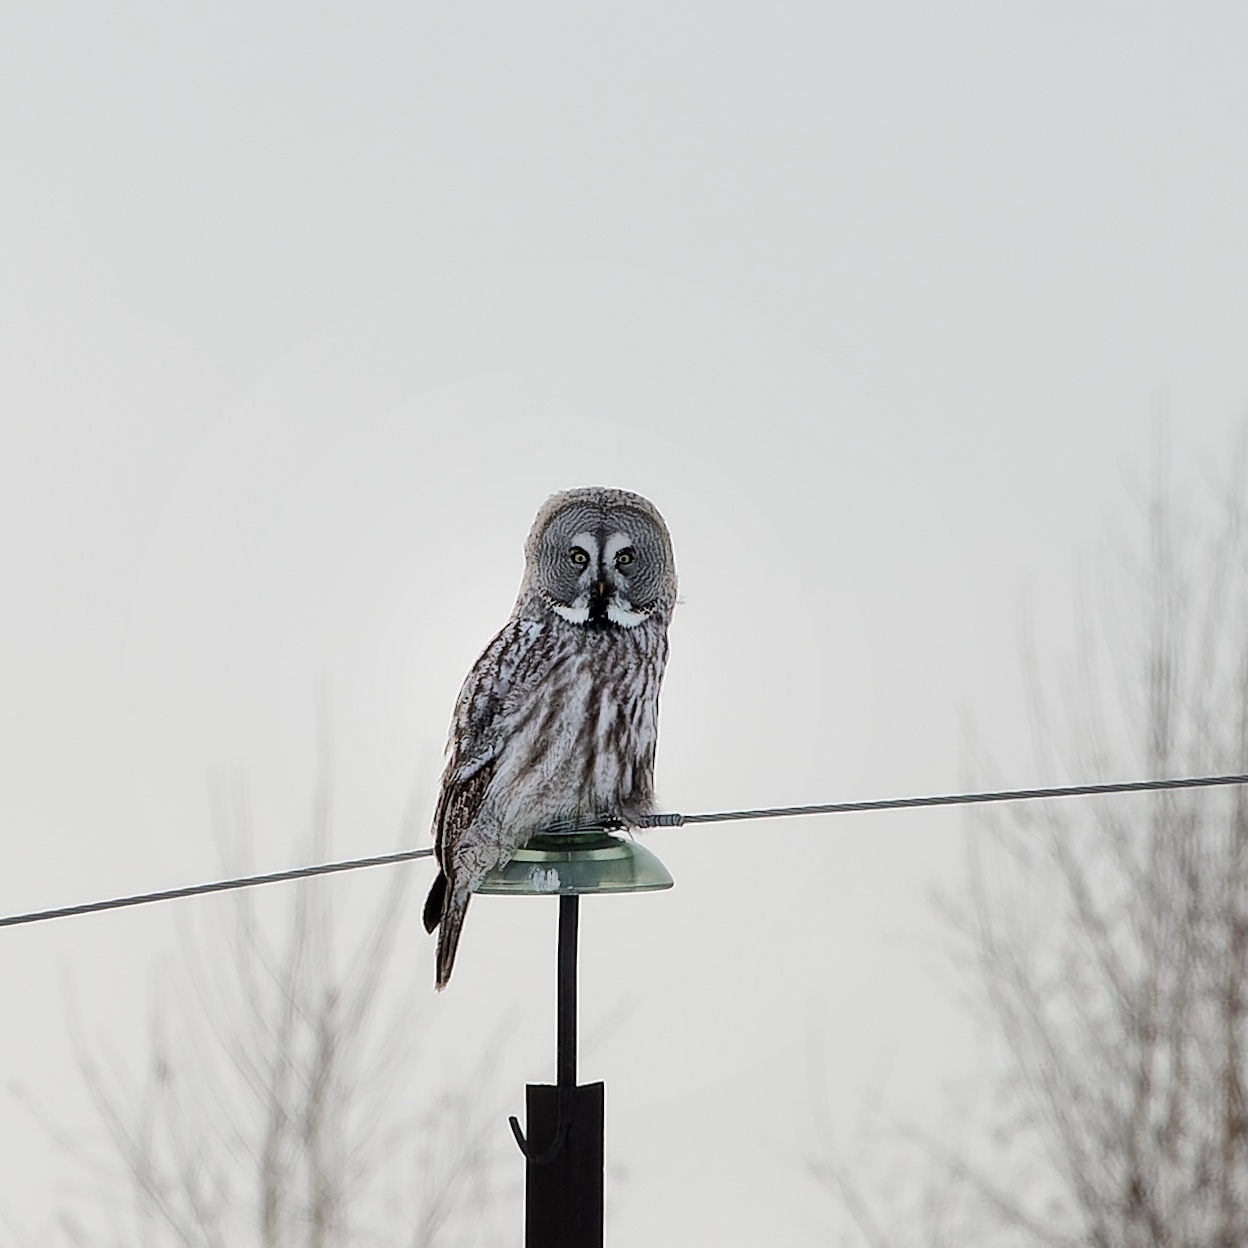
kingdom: Animalia
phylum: Chordata
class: Aves
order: Strigiformes
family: Strigidae
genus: Strix
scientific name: Strix nebulosa
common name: Great grey owl
